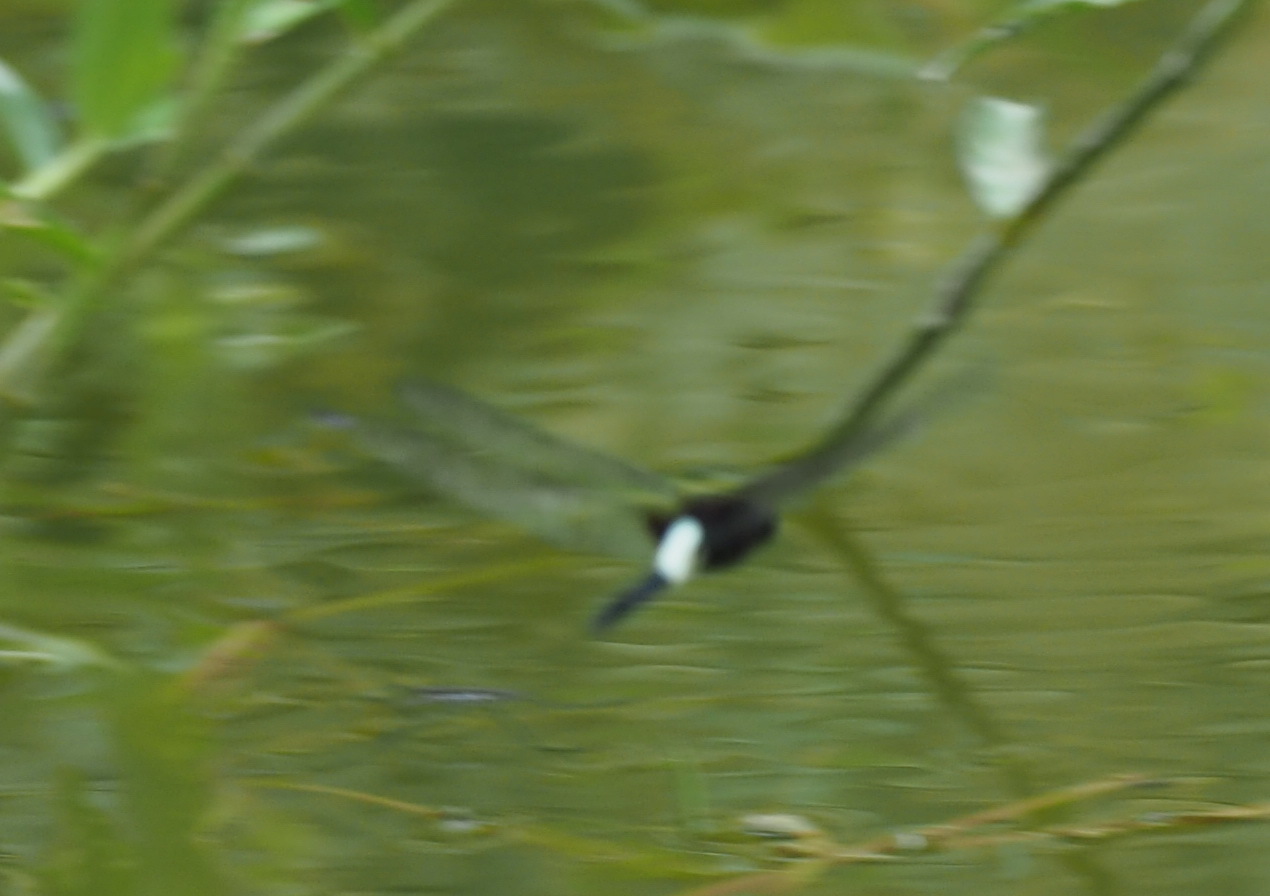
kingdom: Animalia
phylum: Arthropoda
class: Insecta
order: Odonata
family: Libellulidae
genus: Pseudothemis
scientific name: Pseudothemis zonata
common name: Pied skimmer
